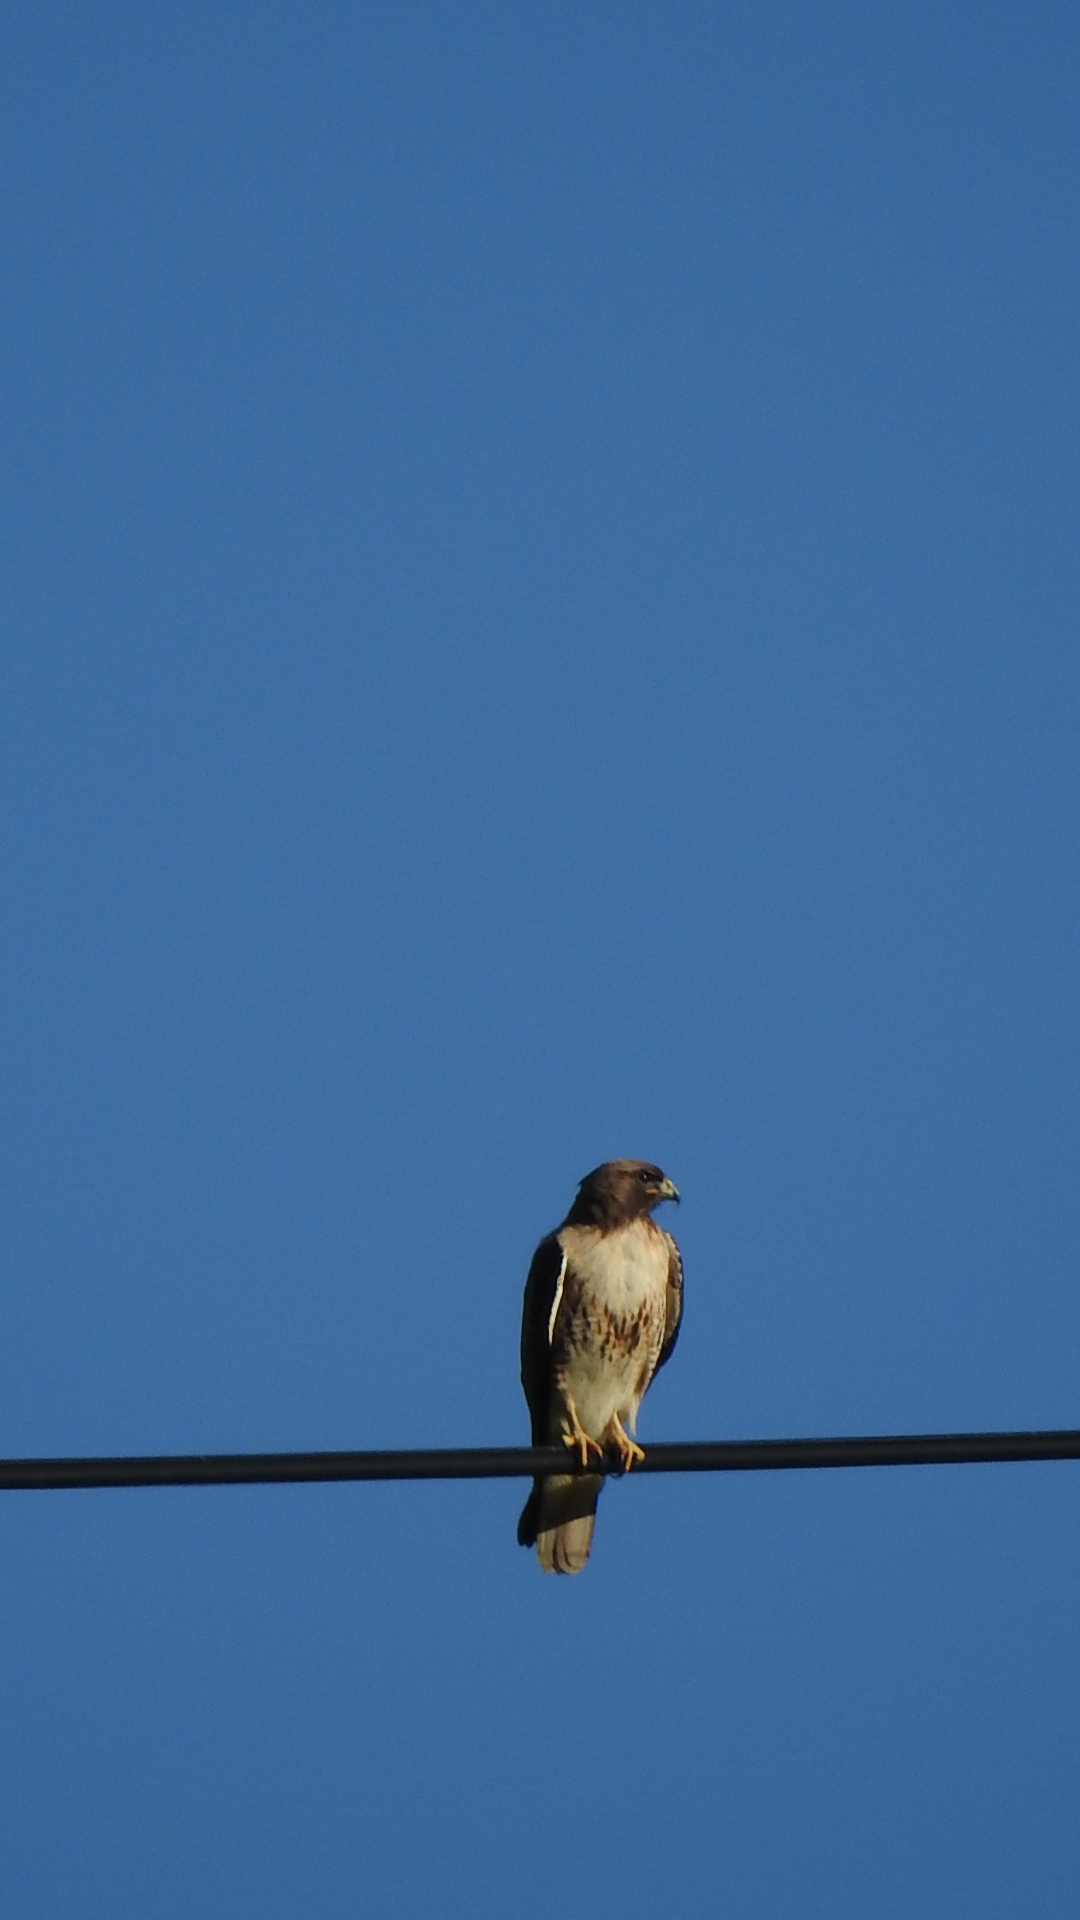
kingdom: Animalia
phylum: Chordata
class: Aves
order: Accipitriformes
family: Accipitridae
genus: Buteo
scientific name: Buteo jamaicensis
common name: Red-tailed hawk
